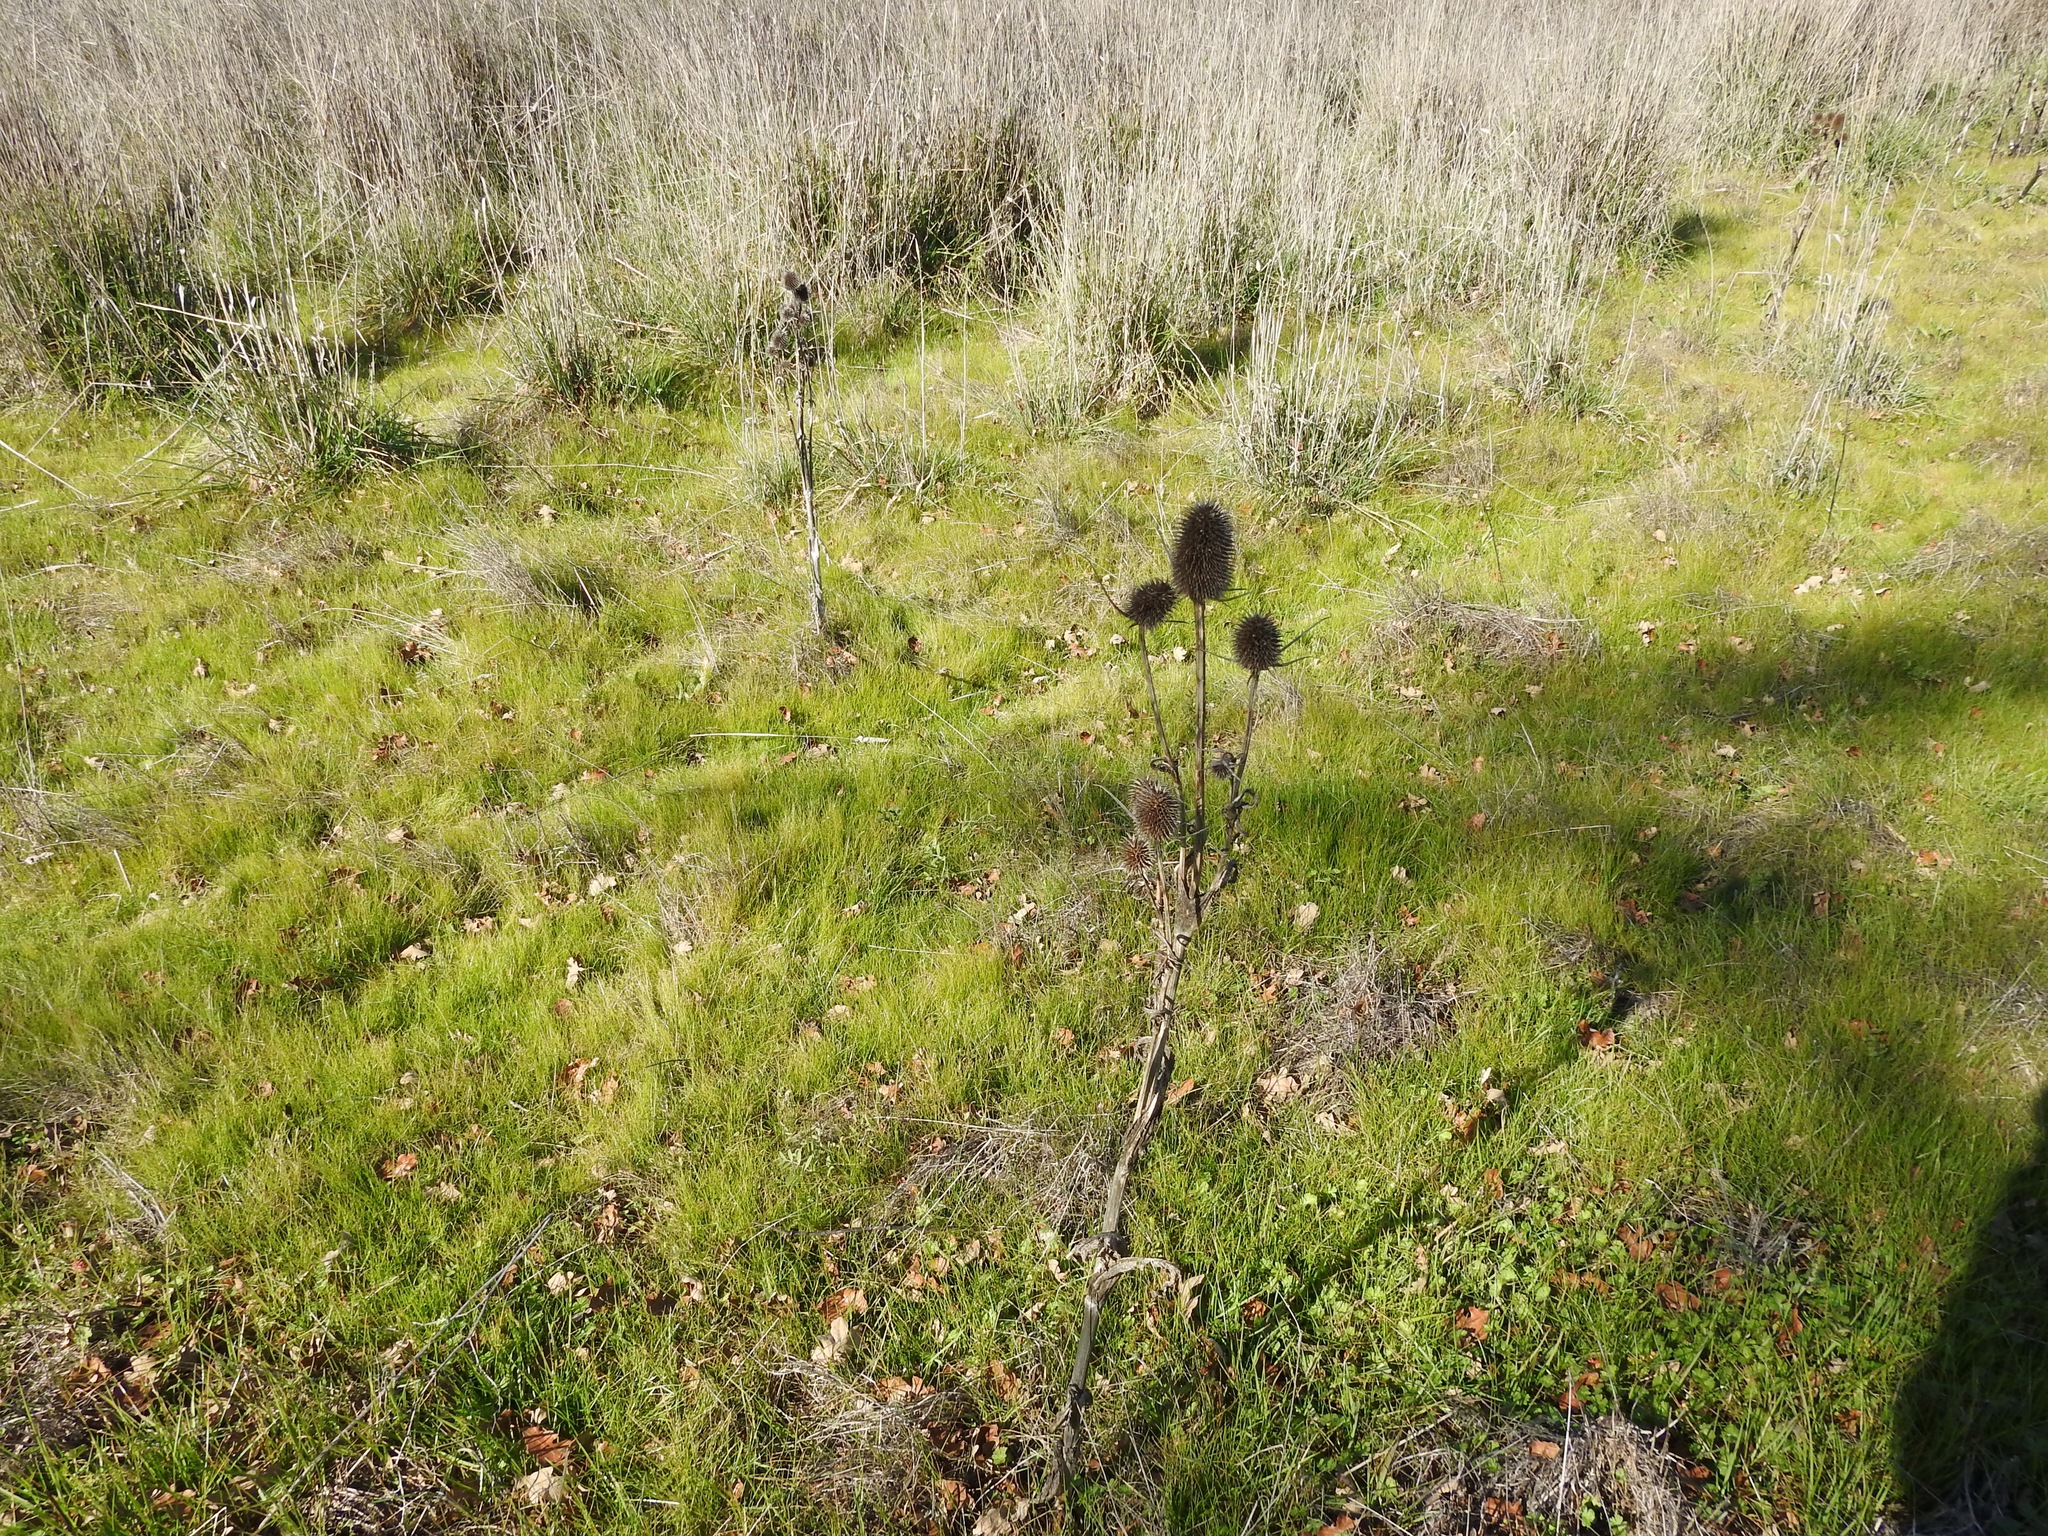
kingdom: Plantae
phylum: Tracheophyta
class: Magnoliopsida
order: Dipsacales
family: Caprifoliaceae
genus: Dipsacus
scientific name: Dipsacus sativus
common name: Fuller's teasel
